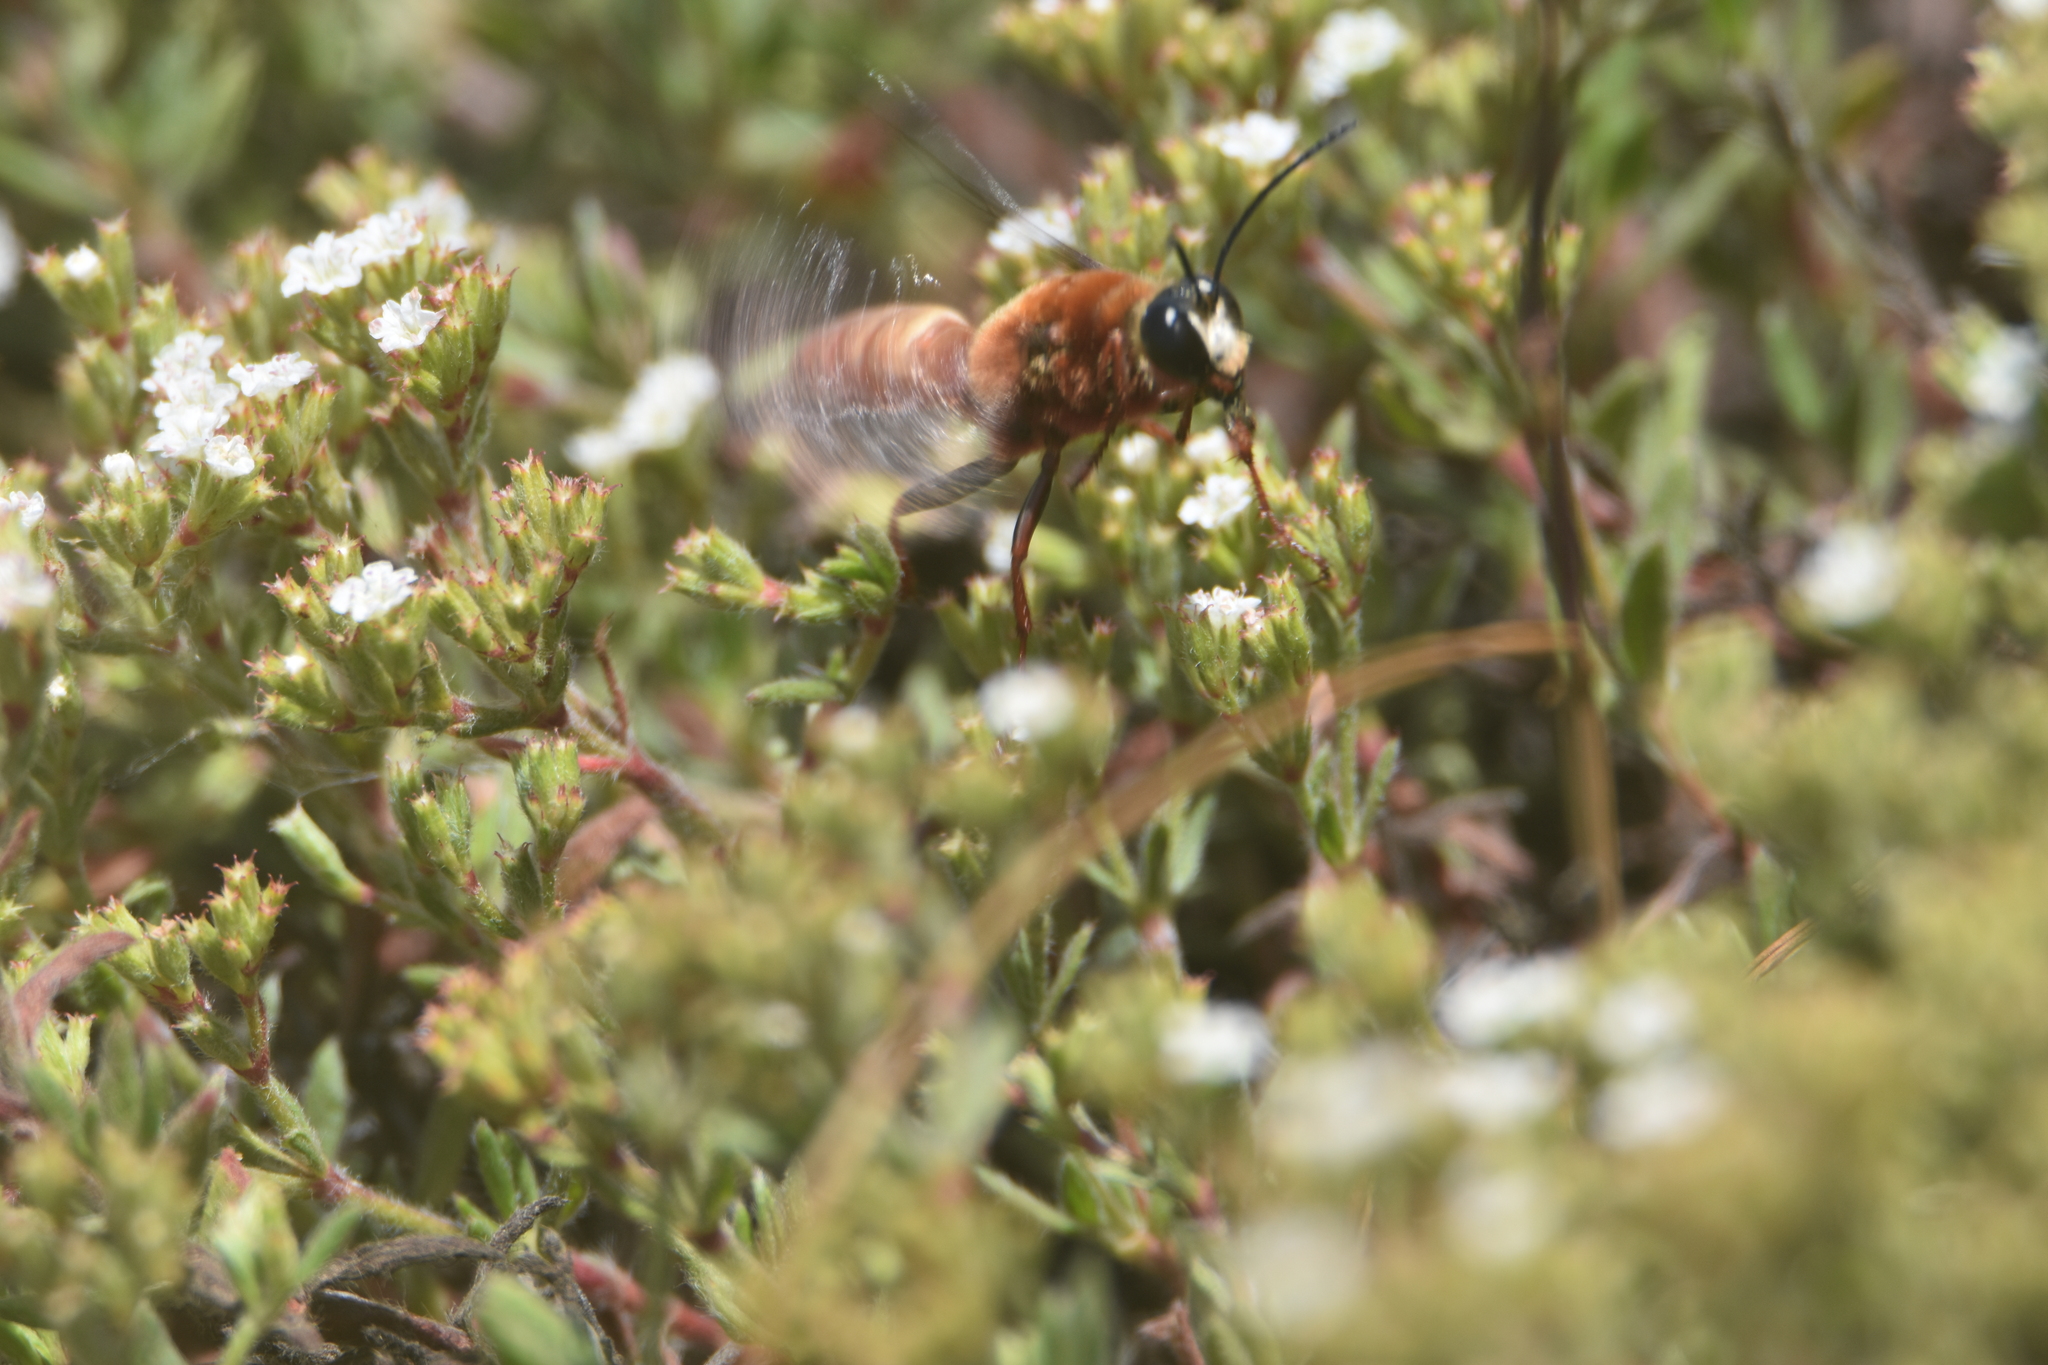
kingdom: Animalia
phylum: Arthropoda
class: Insecta
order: Hymenoptera
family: Sphecidae
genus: Sphex
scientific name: Sphex latreillei
